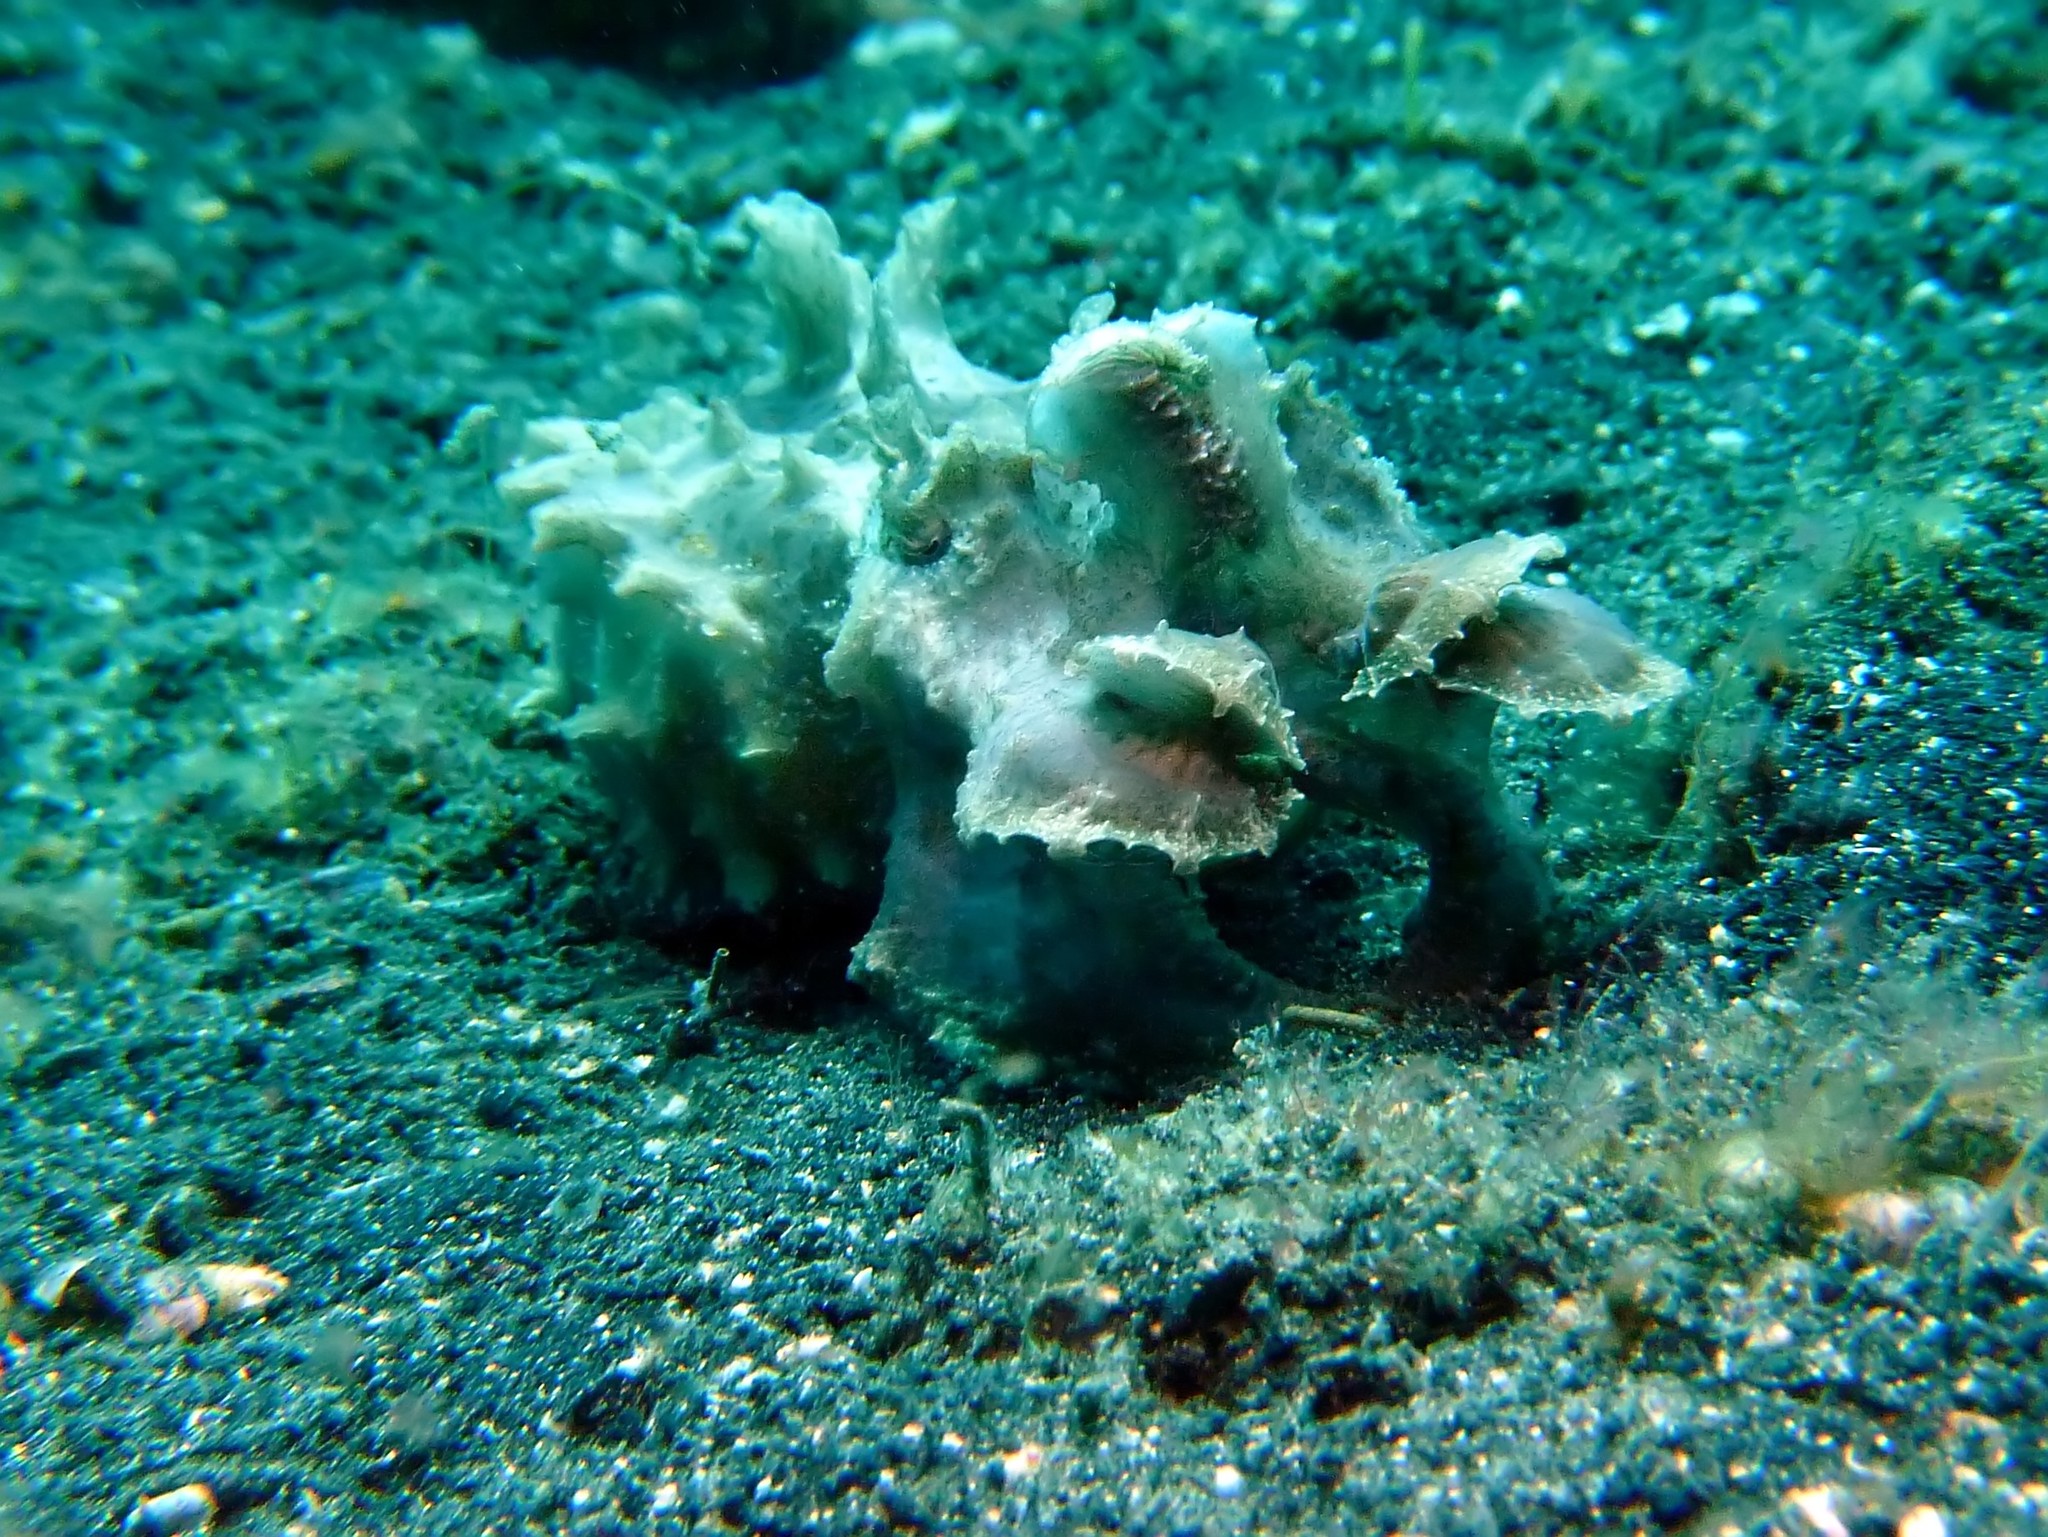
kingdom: Animalia
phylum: Mollusca
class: Cephalopoda
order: Sepiida
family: Sepiidae
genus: Ascarosepion
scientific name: Ascarosepion pfefferi
